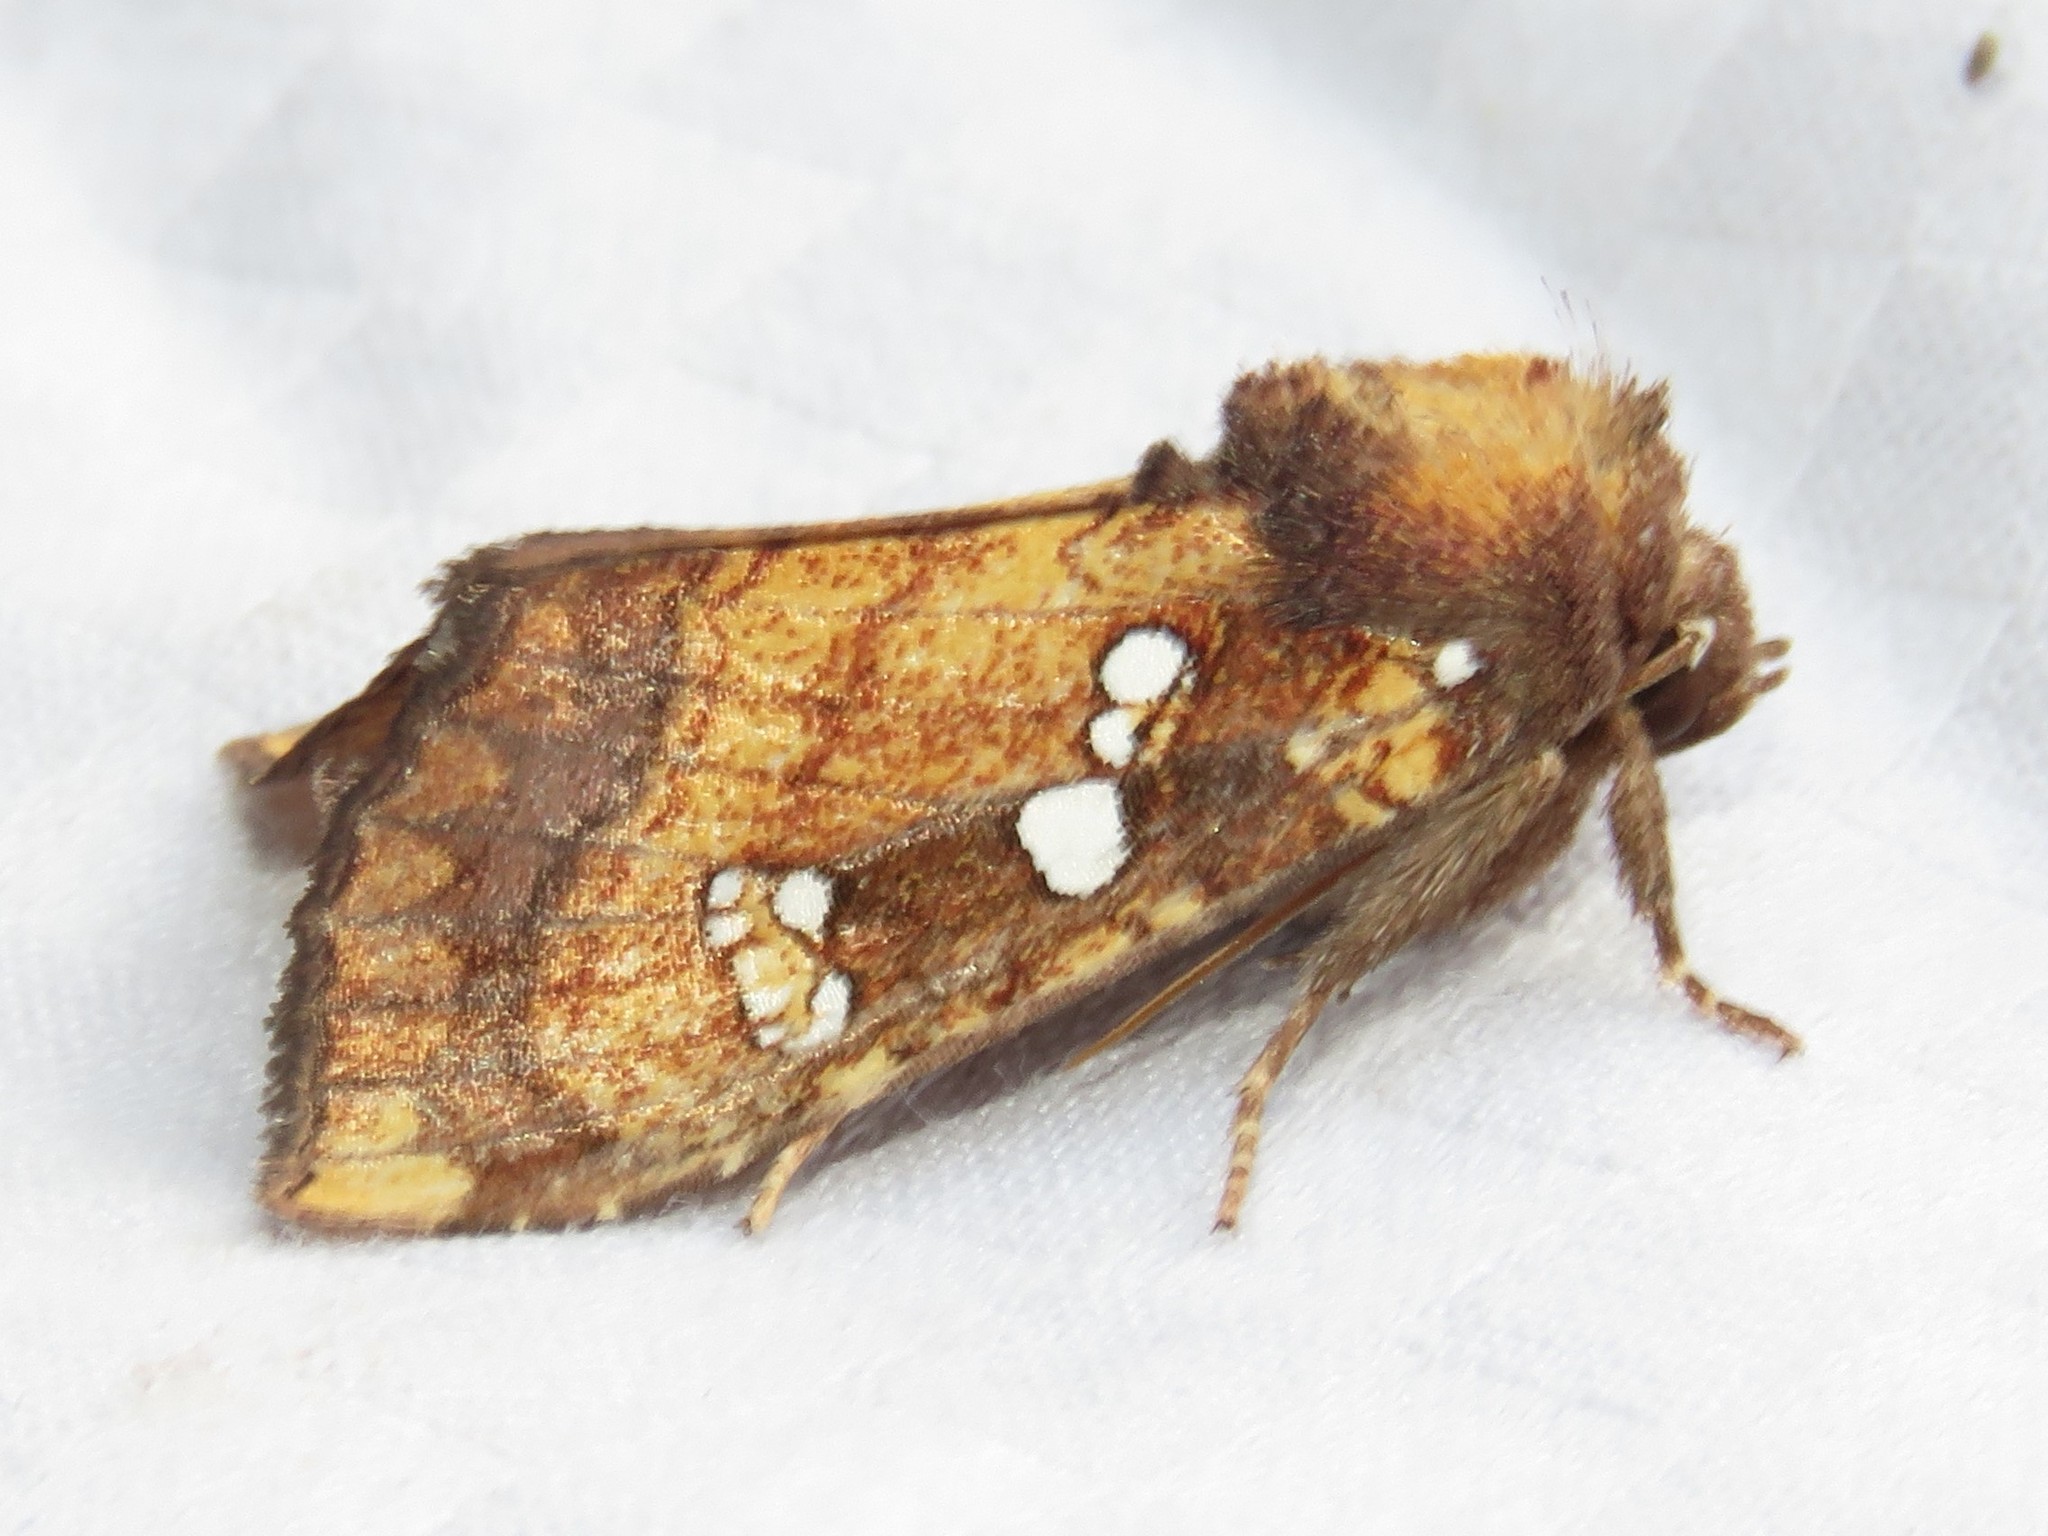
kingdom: Animalia
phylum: Arthropoda
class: Insecta
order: Lepidoptera
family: Noctuidae
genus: Papaipema
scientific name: Papaipema arctivorens
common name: Northern burdock borer moth
